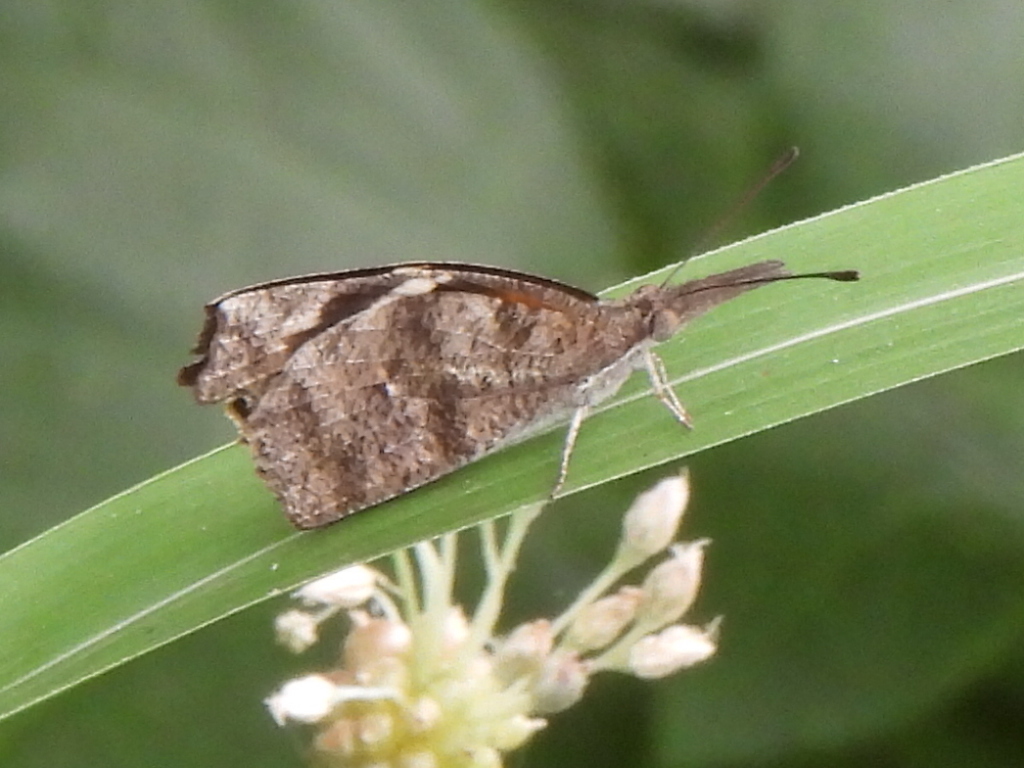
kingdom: Animalia
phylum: Arthropoda
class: Insecta
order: Lepidoptera
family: Nymphalidae
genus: Libytheana
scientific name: Libytheana carinenta
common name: American snout
